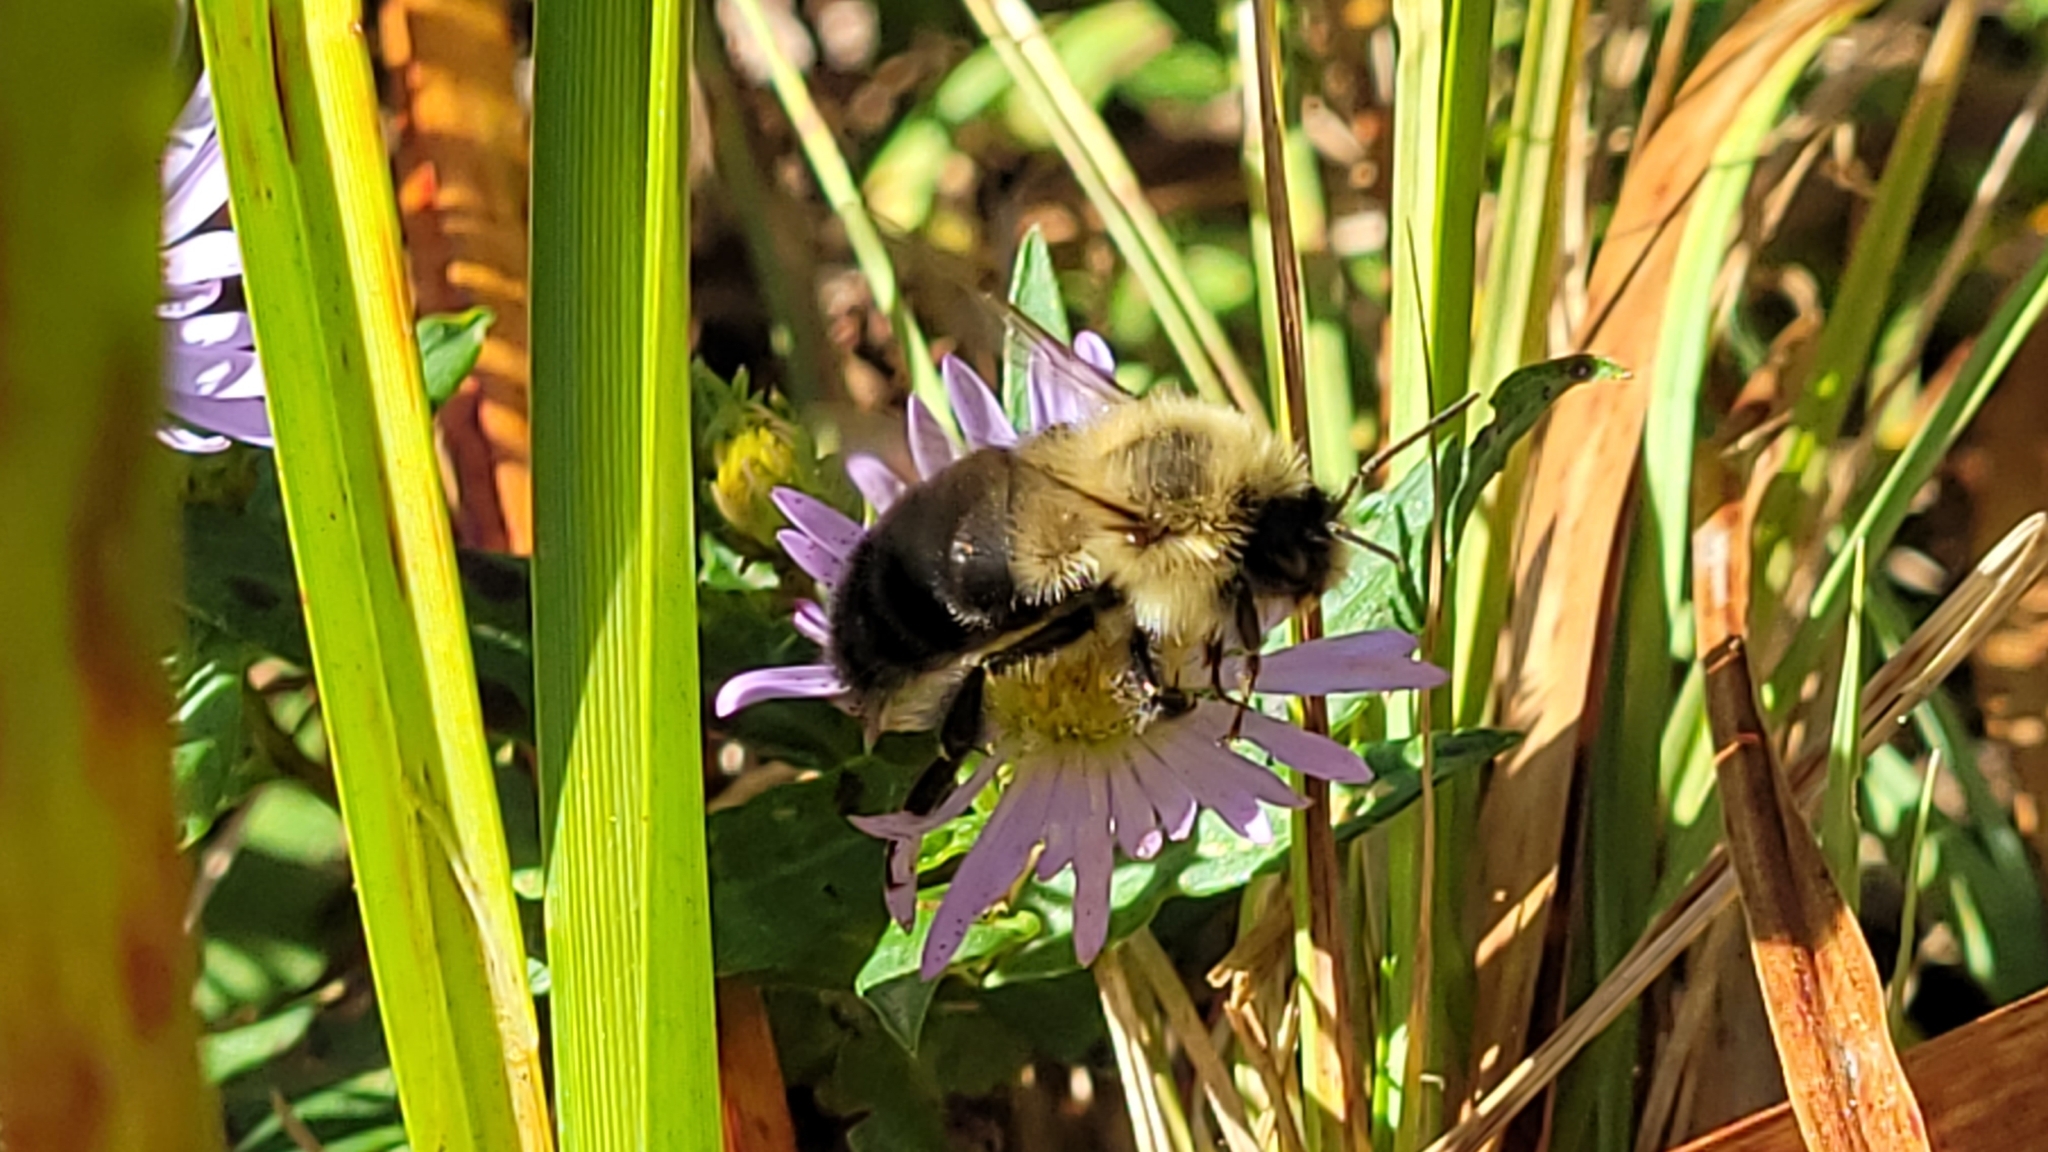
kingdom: Animalia
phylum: Arthropoda
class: Insecta
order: Hymenoptera
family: Apidae
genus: Bombus
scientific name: Bombus impatiens
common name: Common eastern bumble bee
